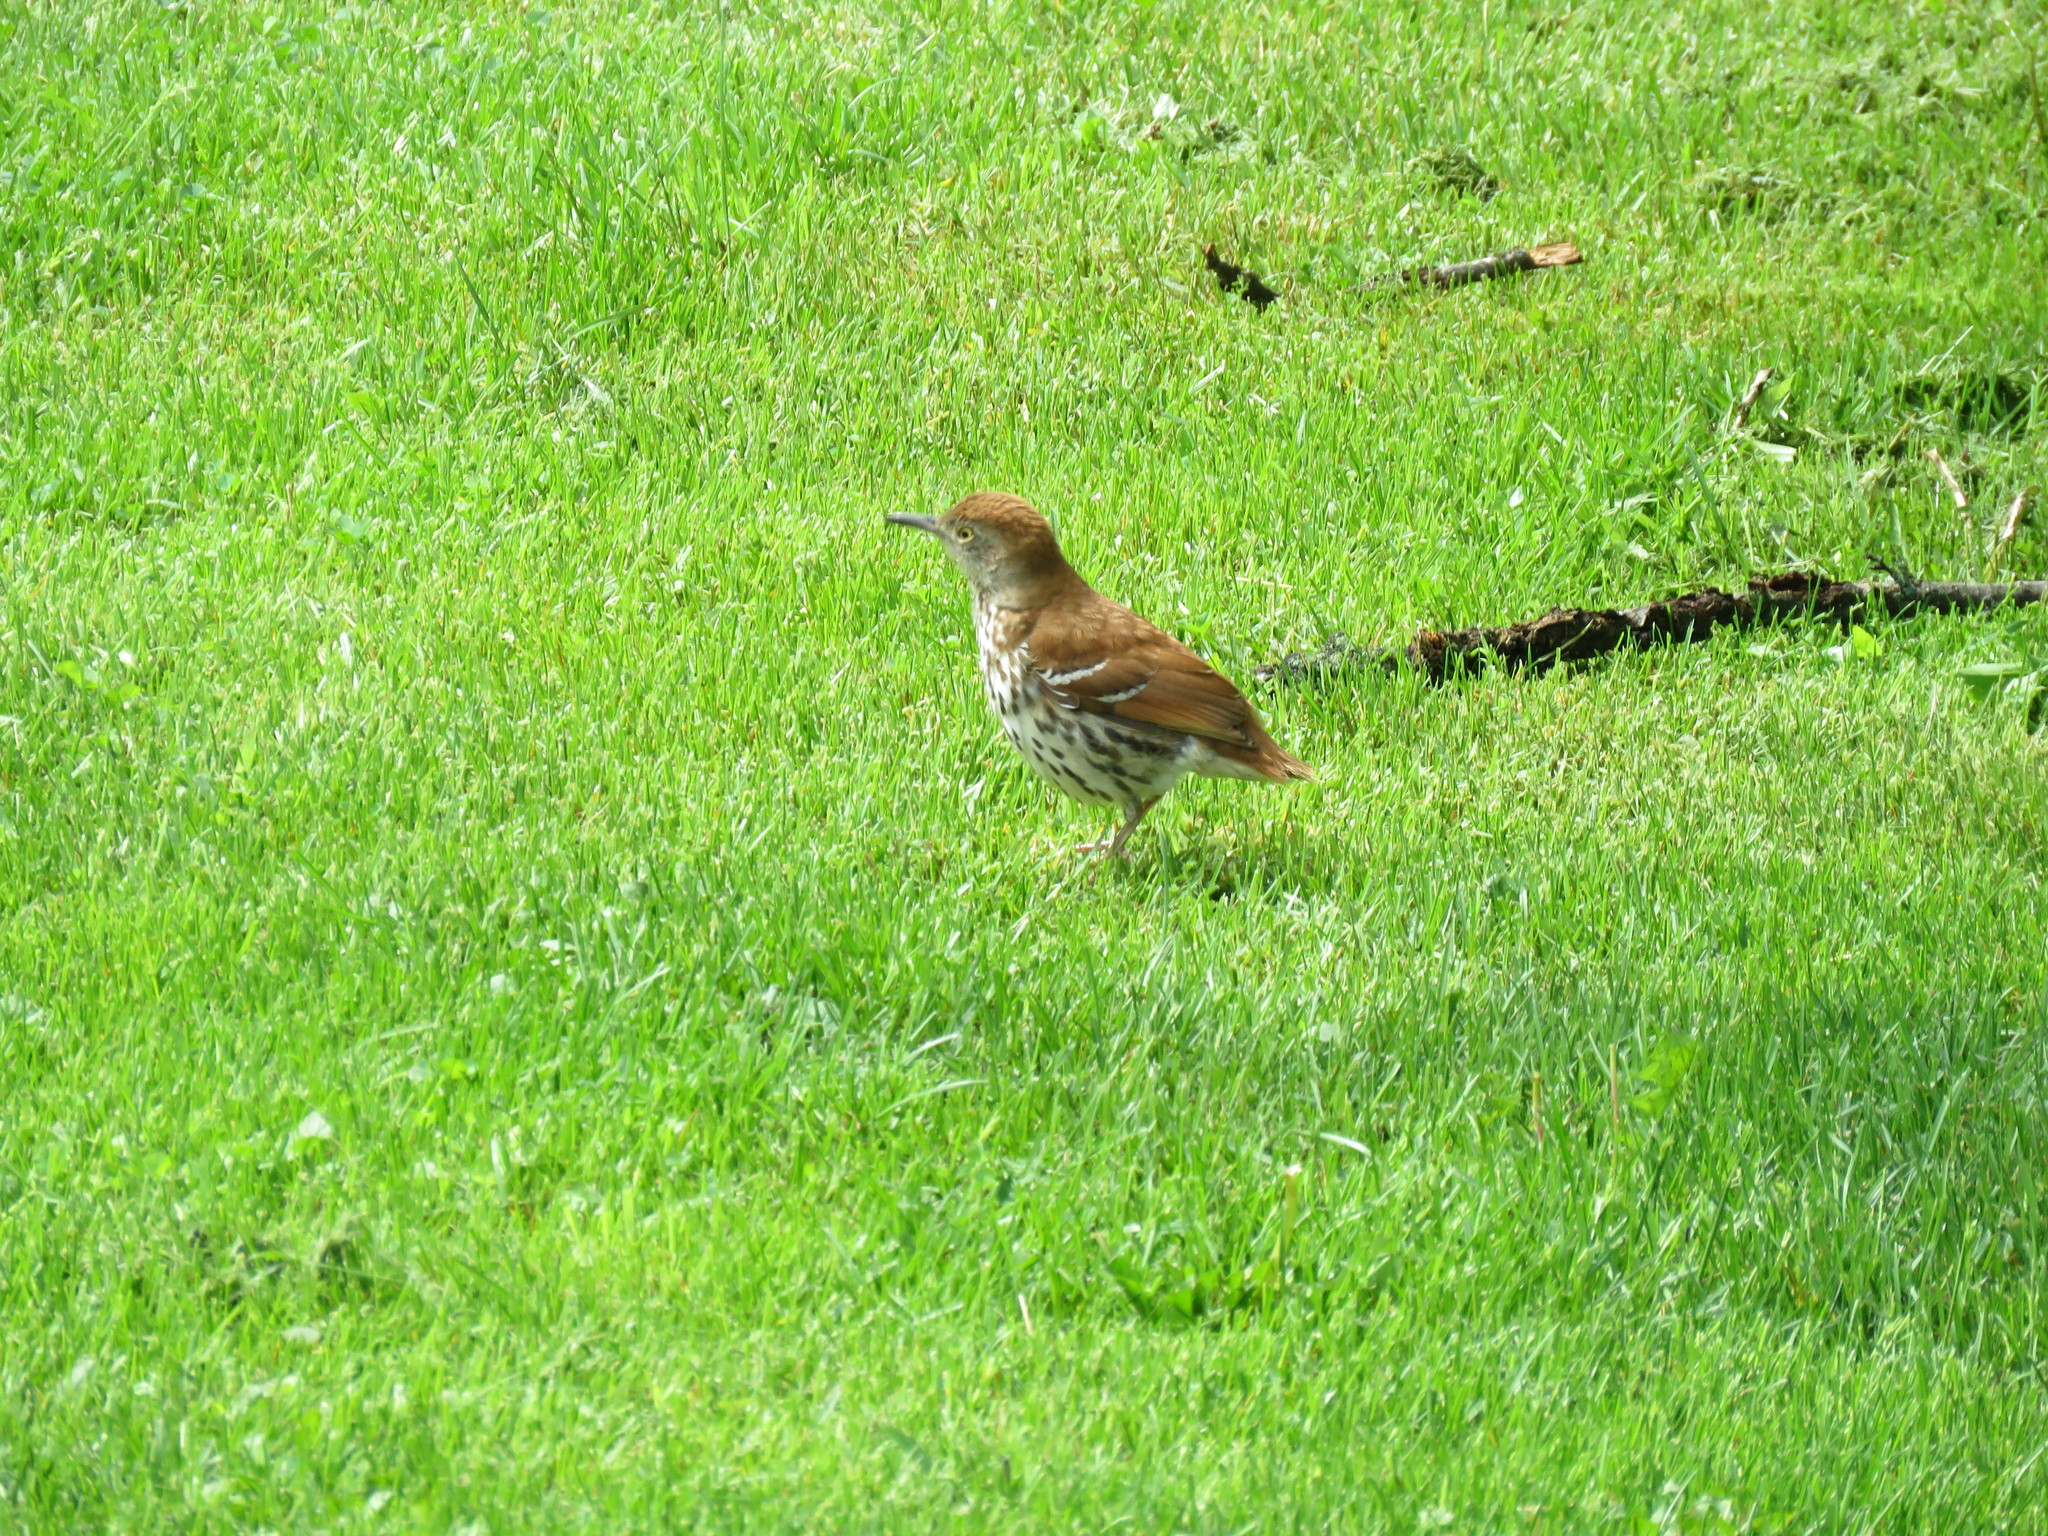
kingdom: Animalia
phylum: Chordata
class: Aves
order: Passeriformes
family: Mimidae
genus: Toxostoma
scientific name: Toxostoma rufum
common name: Brown thrasher
